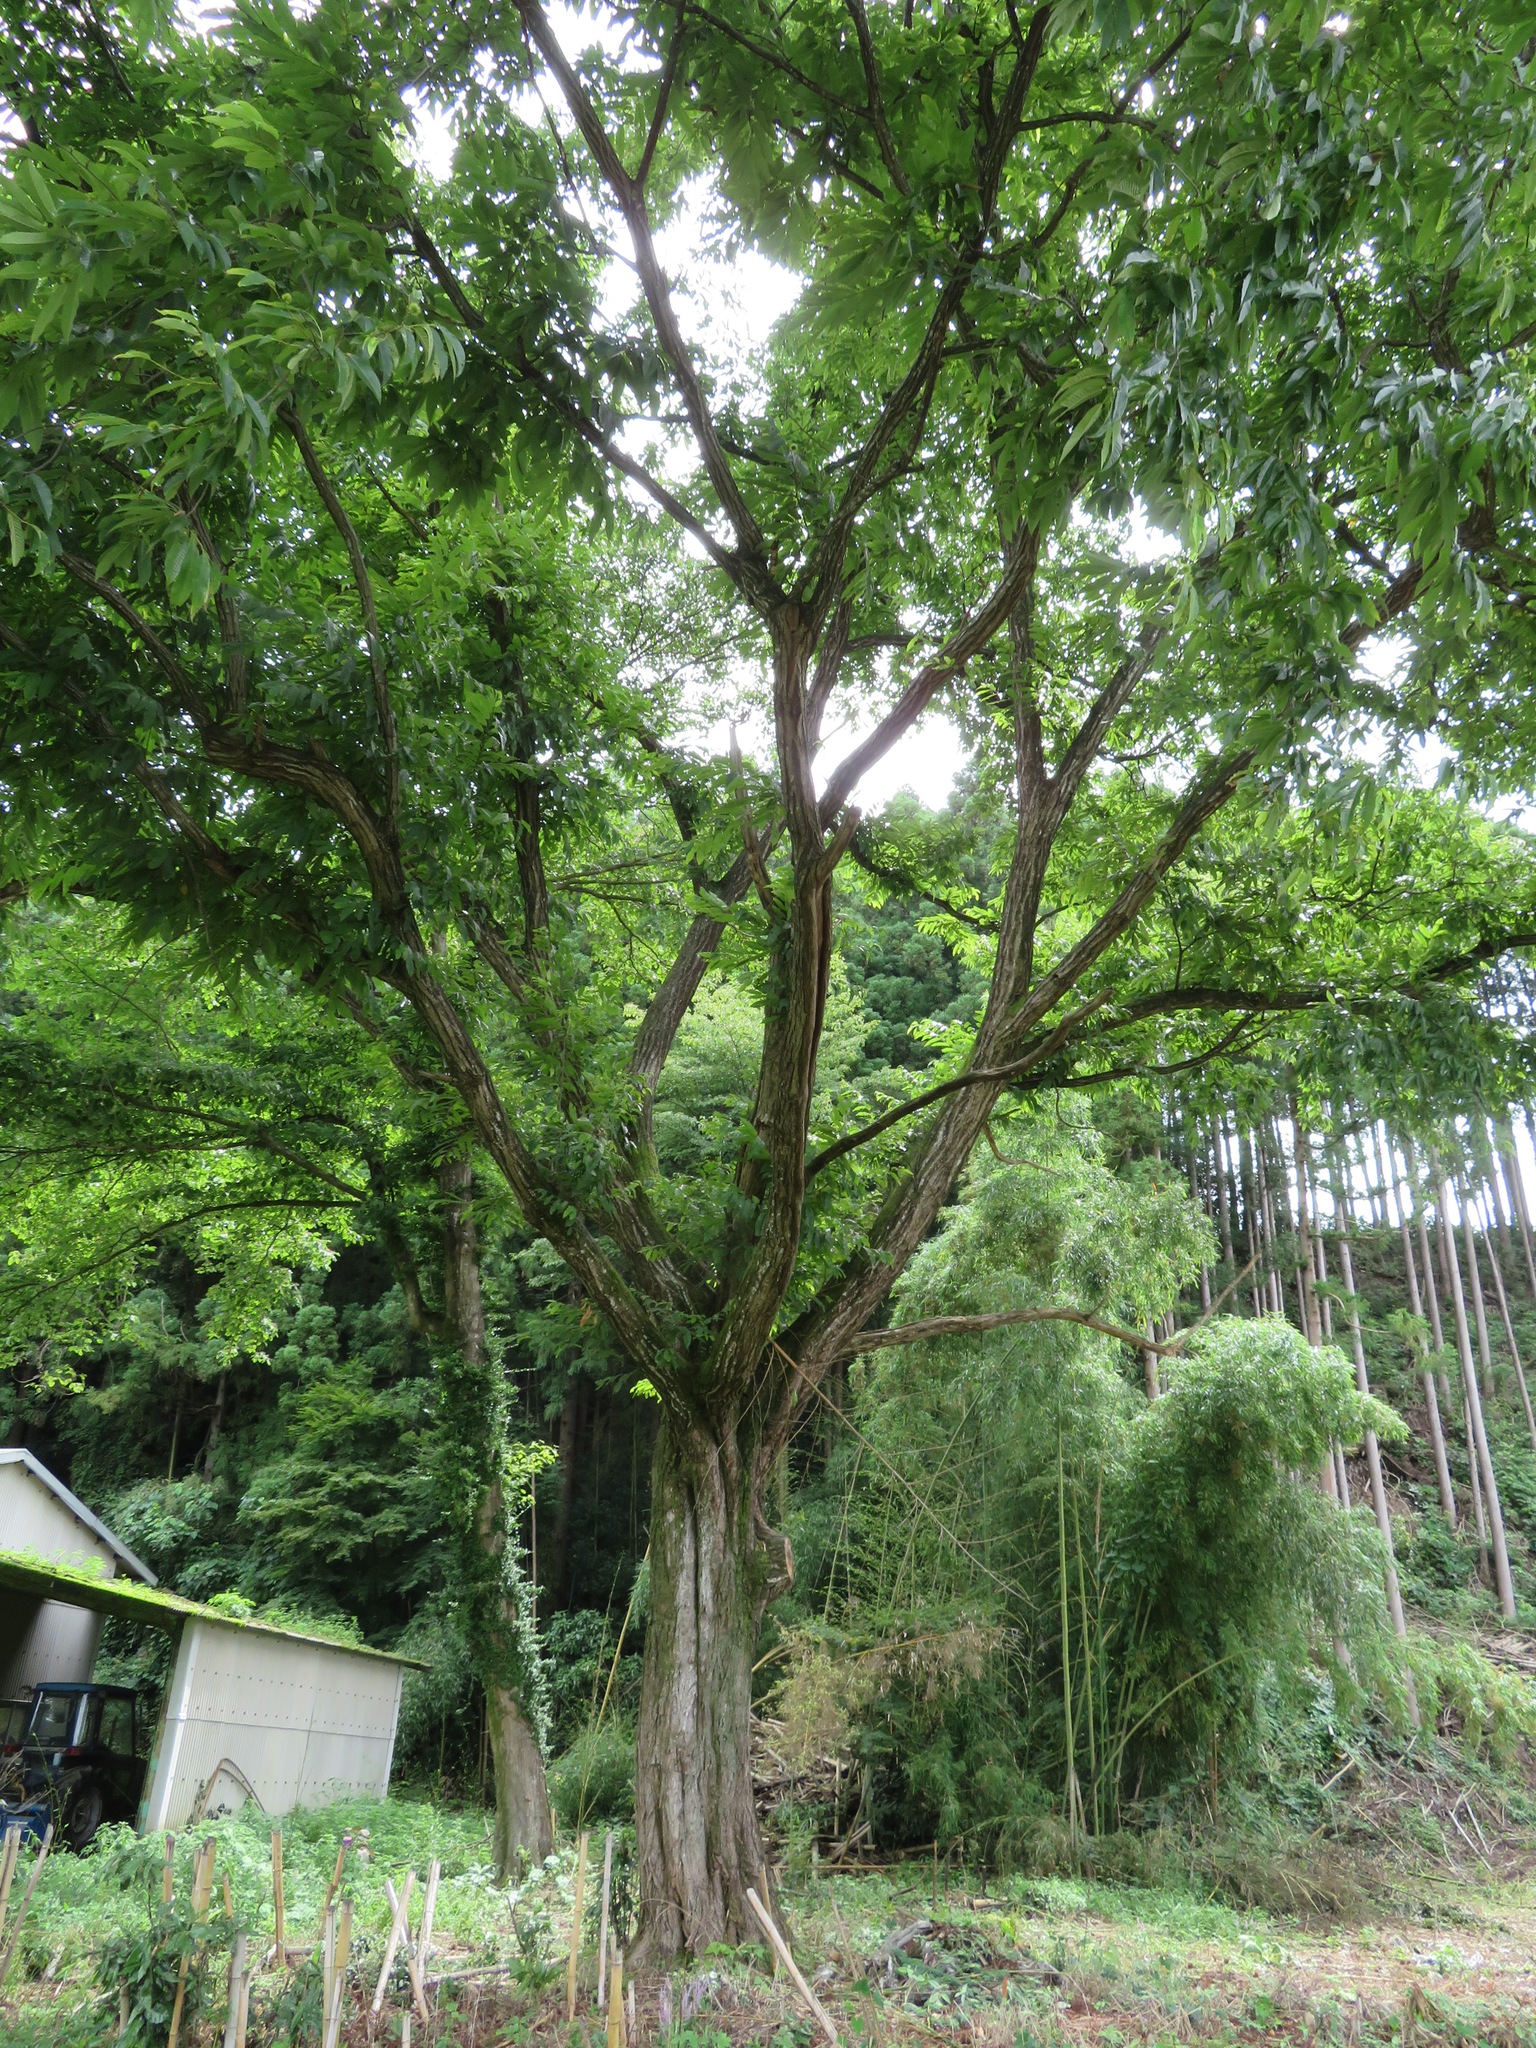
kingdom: Plantae
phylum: Tracheophyta
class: Magnoliopsida
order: Fagales
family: Fagaceae
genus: Castanea
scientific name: Castanea crenata
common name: Japanese chestnut
